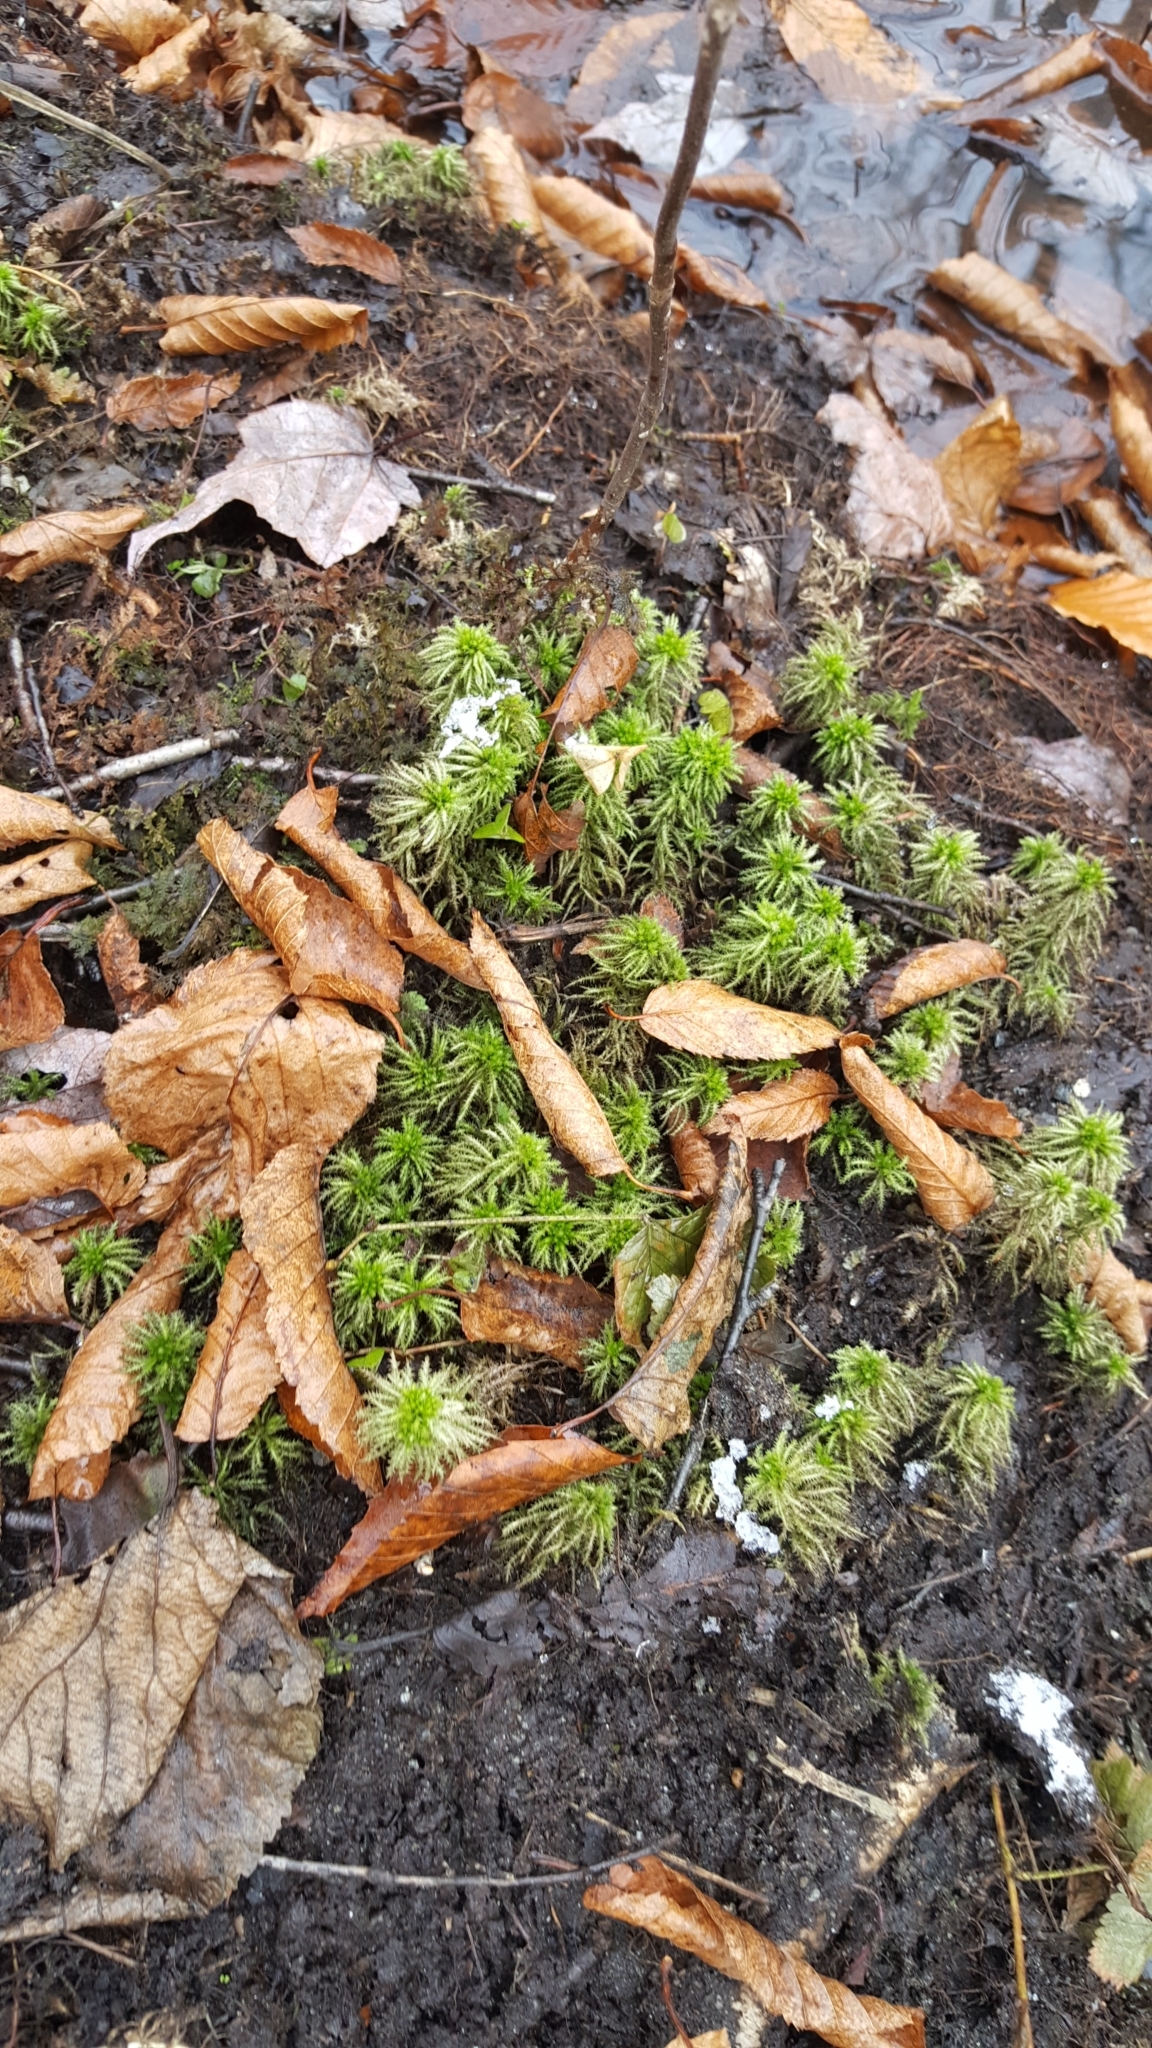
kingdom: Plantae
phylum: Bryophyta
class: Sphagnopsida
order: Sphagnales
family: Sphagnaceae
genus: Sphagnum
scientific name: Sphagnum squarrosum
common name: Shaggy peat moss
